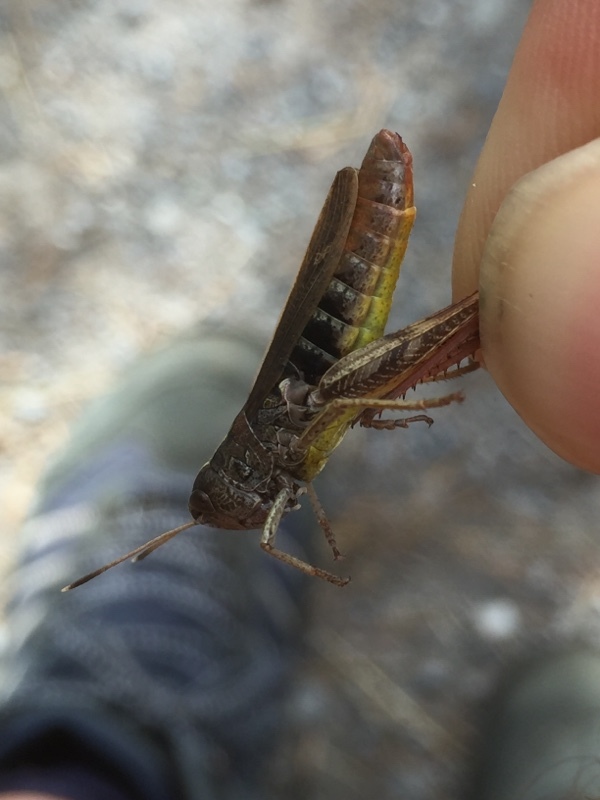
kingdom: Animalia
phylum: Arthropoda
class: Insecta
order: Orthoptera
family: Acrididae
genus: Gomphocerippus
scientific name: Gomphocerippus rufus
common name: Rufous grasshopper
